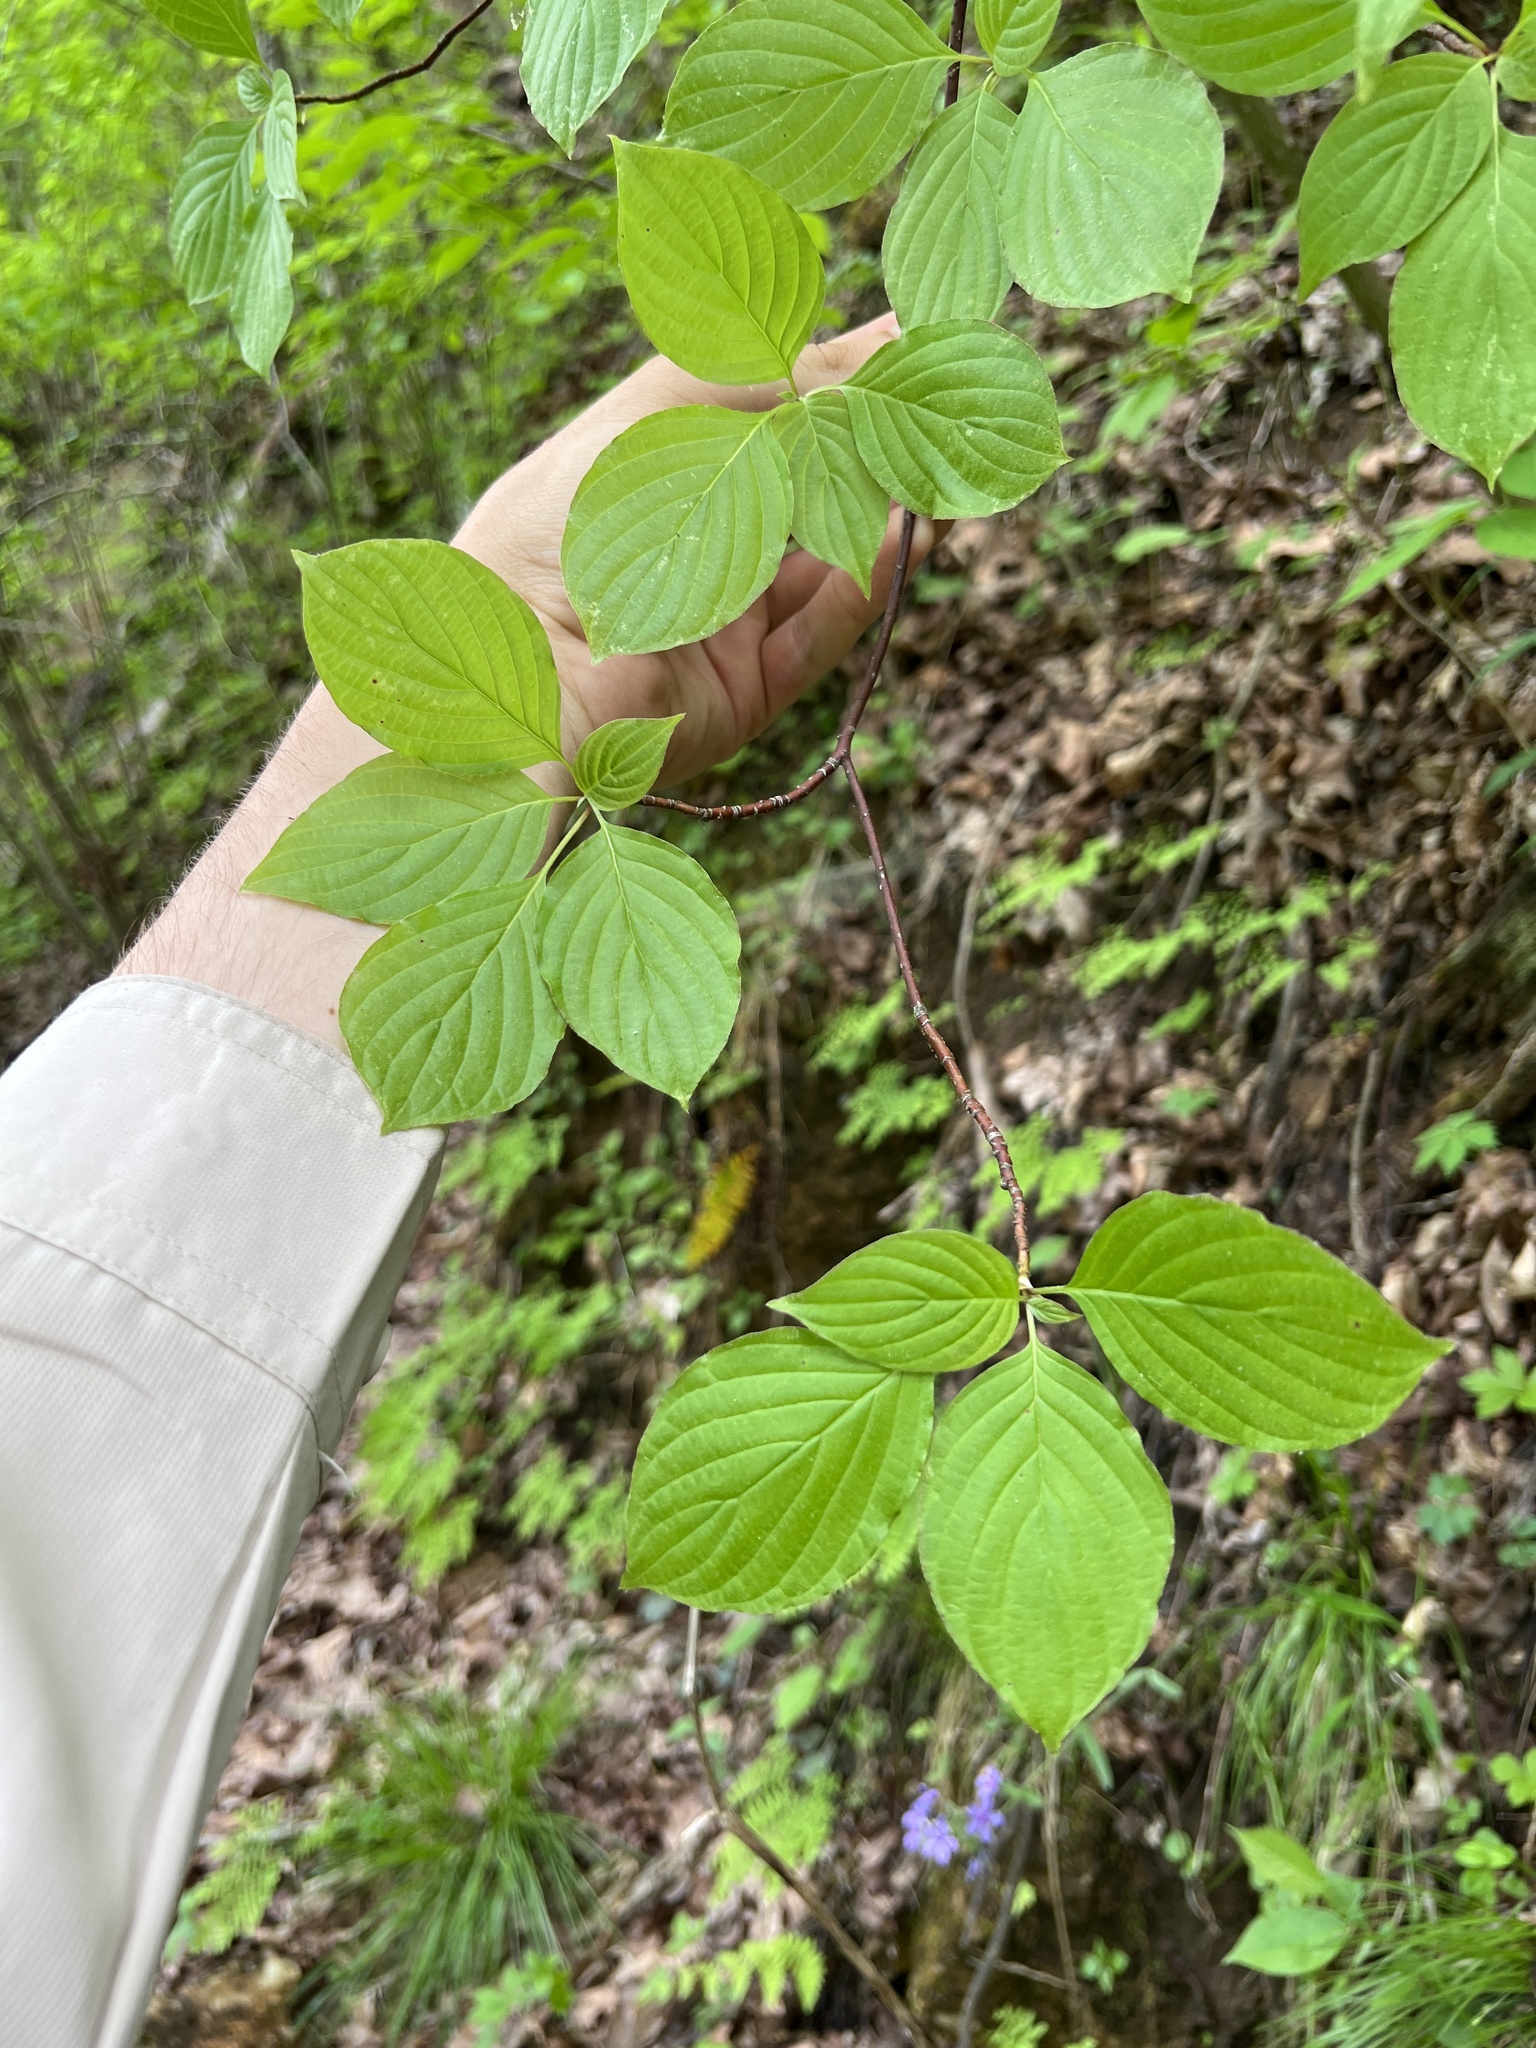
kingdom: Plantae
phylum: Tracheophyta
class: Magnoliopsida
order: Cornales
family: Cornaceae
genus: Cornus
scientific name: Cornus alternifolia
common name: Pagoda dogwood
